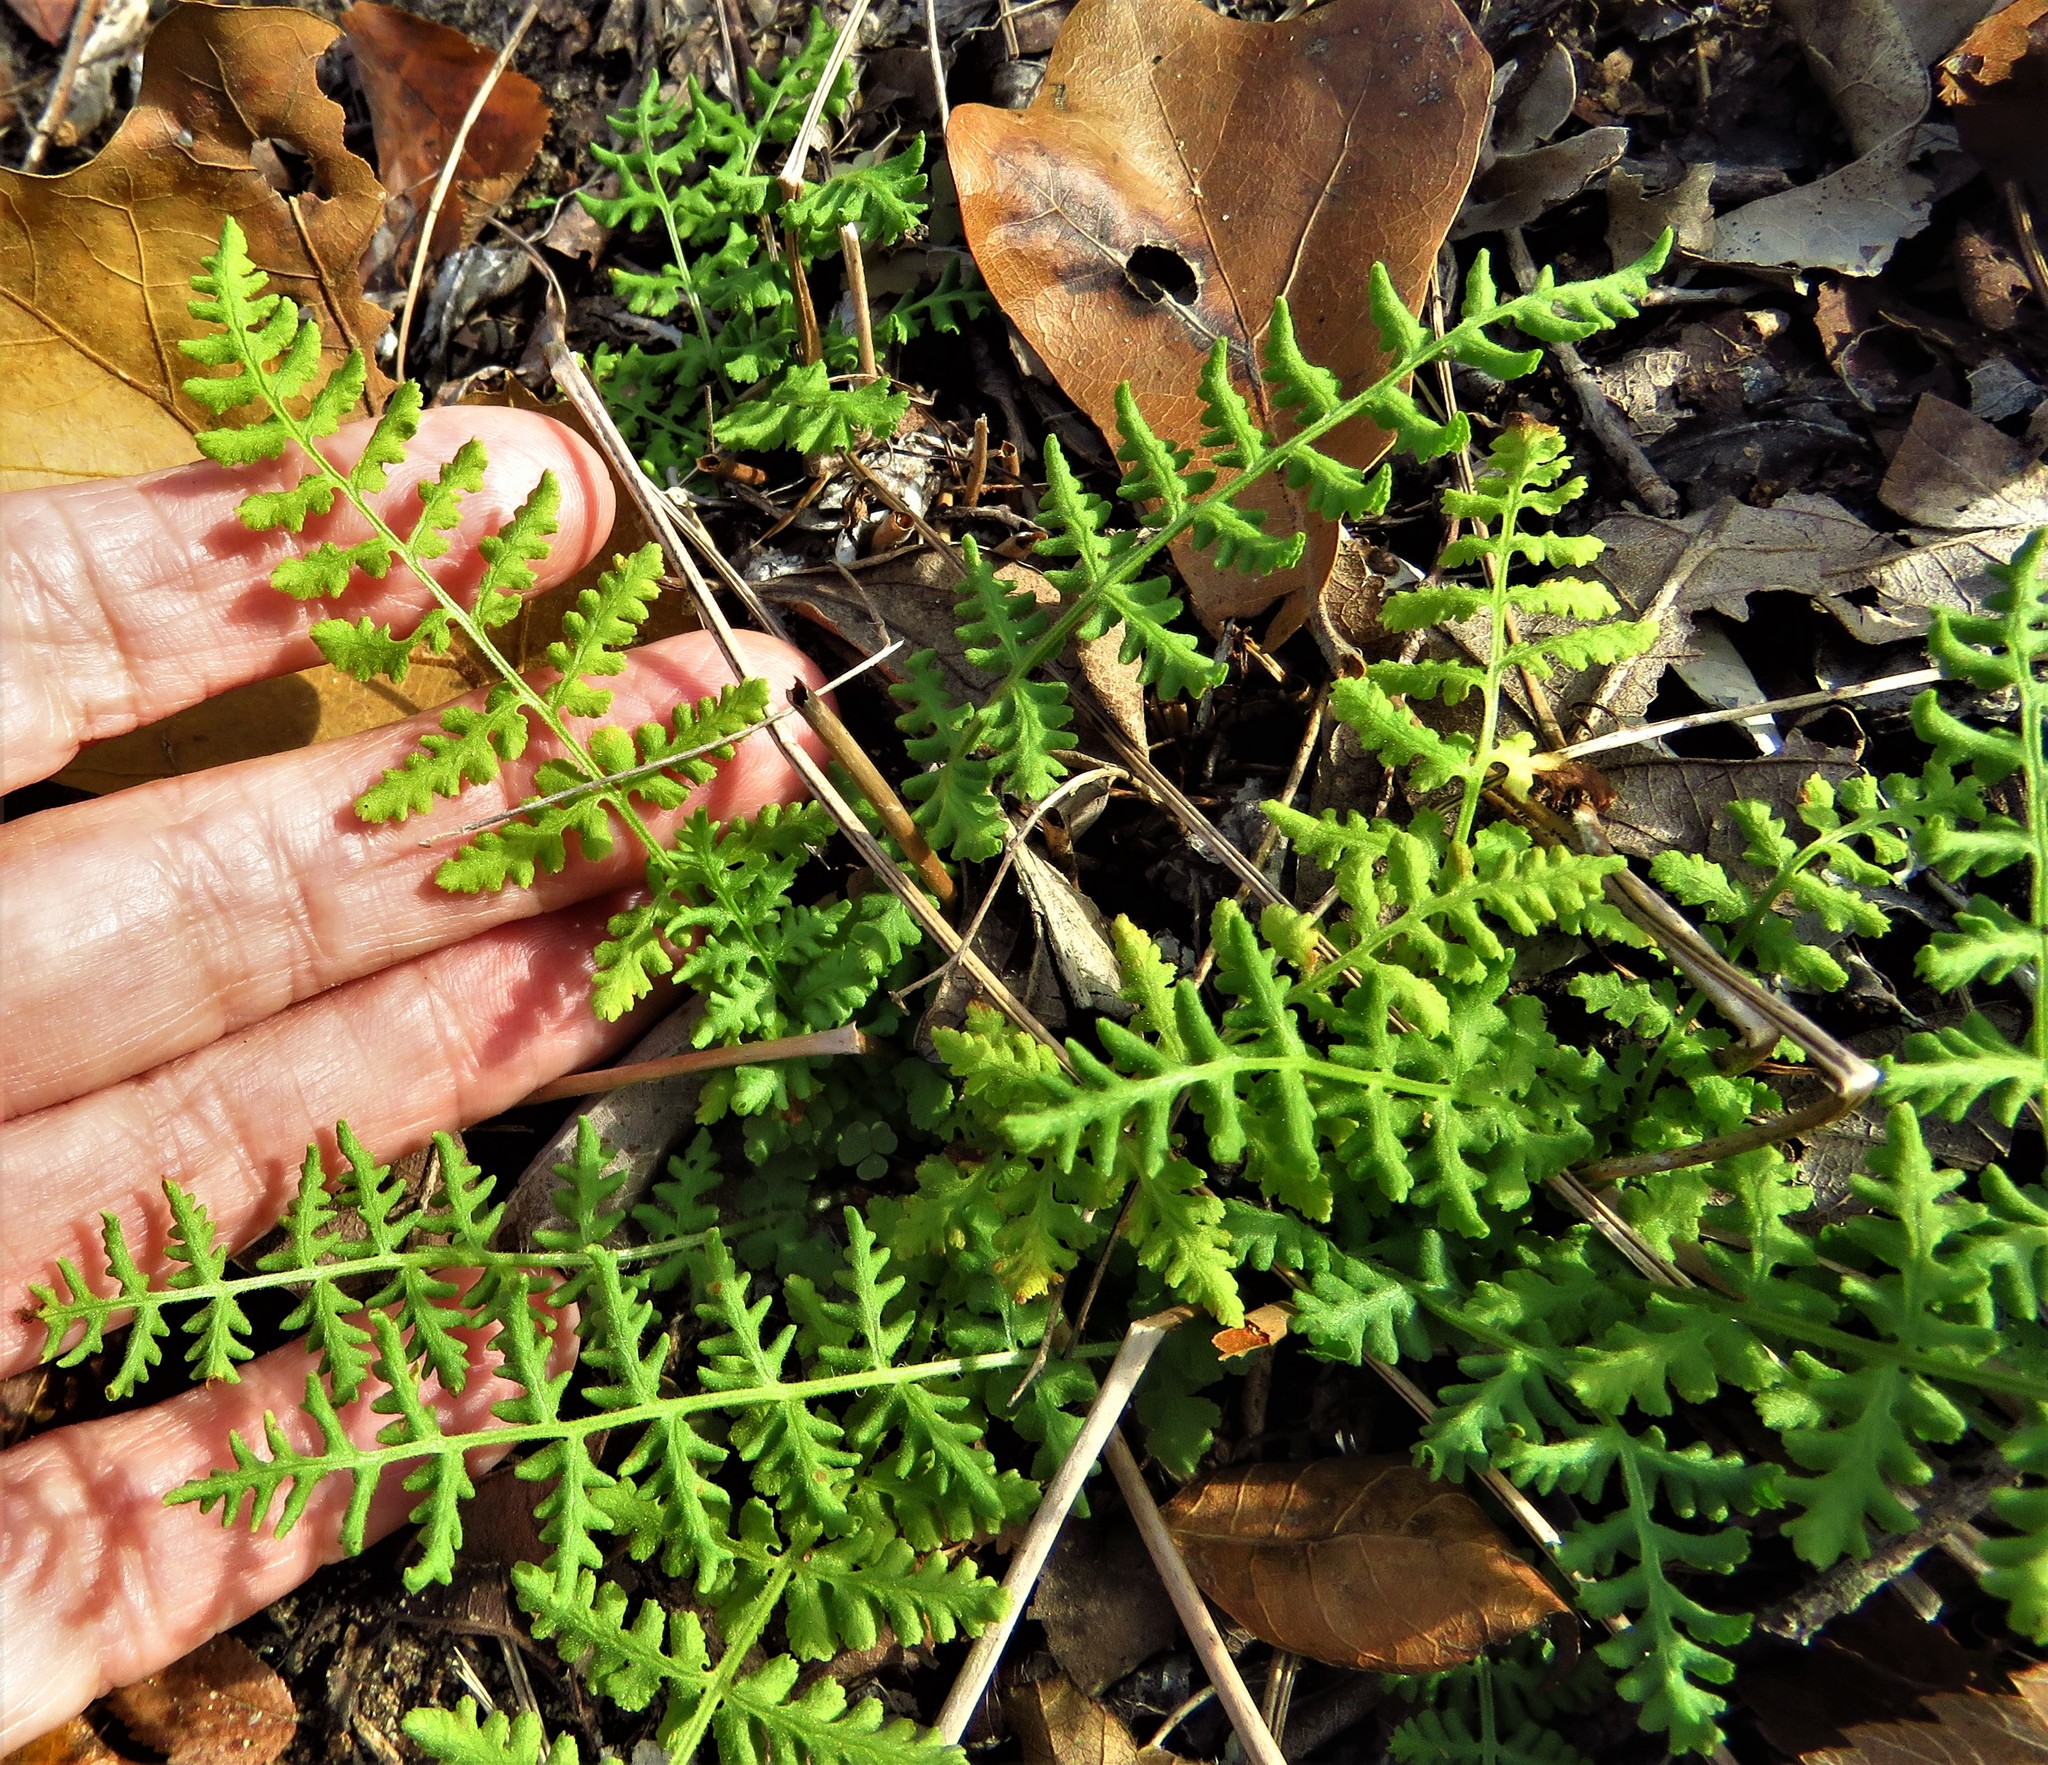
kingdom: Plantae
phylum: Tracheophyta
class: Polypodiopsida
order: Polypodiales
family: Woodsiaceae
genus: Physematium
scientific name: Physematium obtusum
